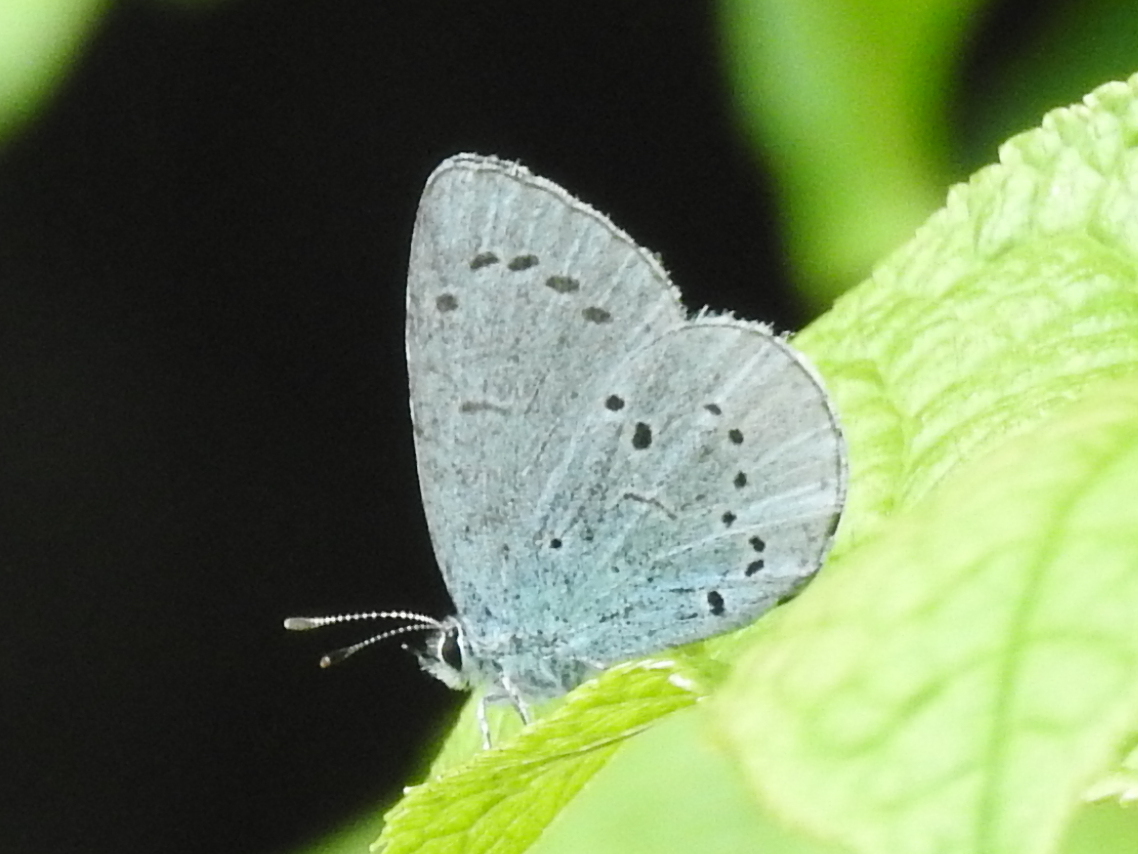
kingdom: Animalia
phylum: Arthropoda
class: Insecta
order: Lepidoptera
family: Lycaenidae
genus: Celastrina
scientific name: Celastrina argiolus
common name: Holly blue
